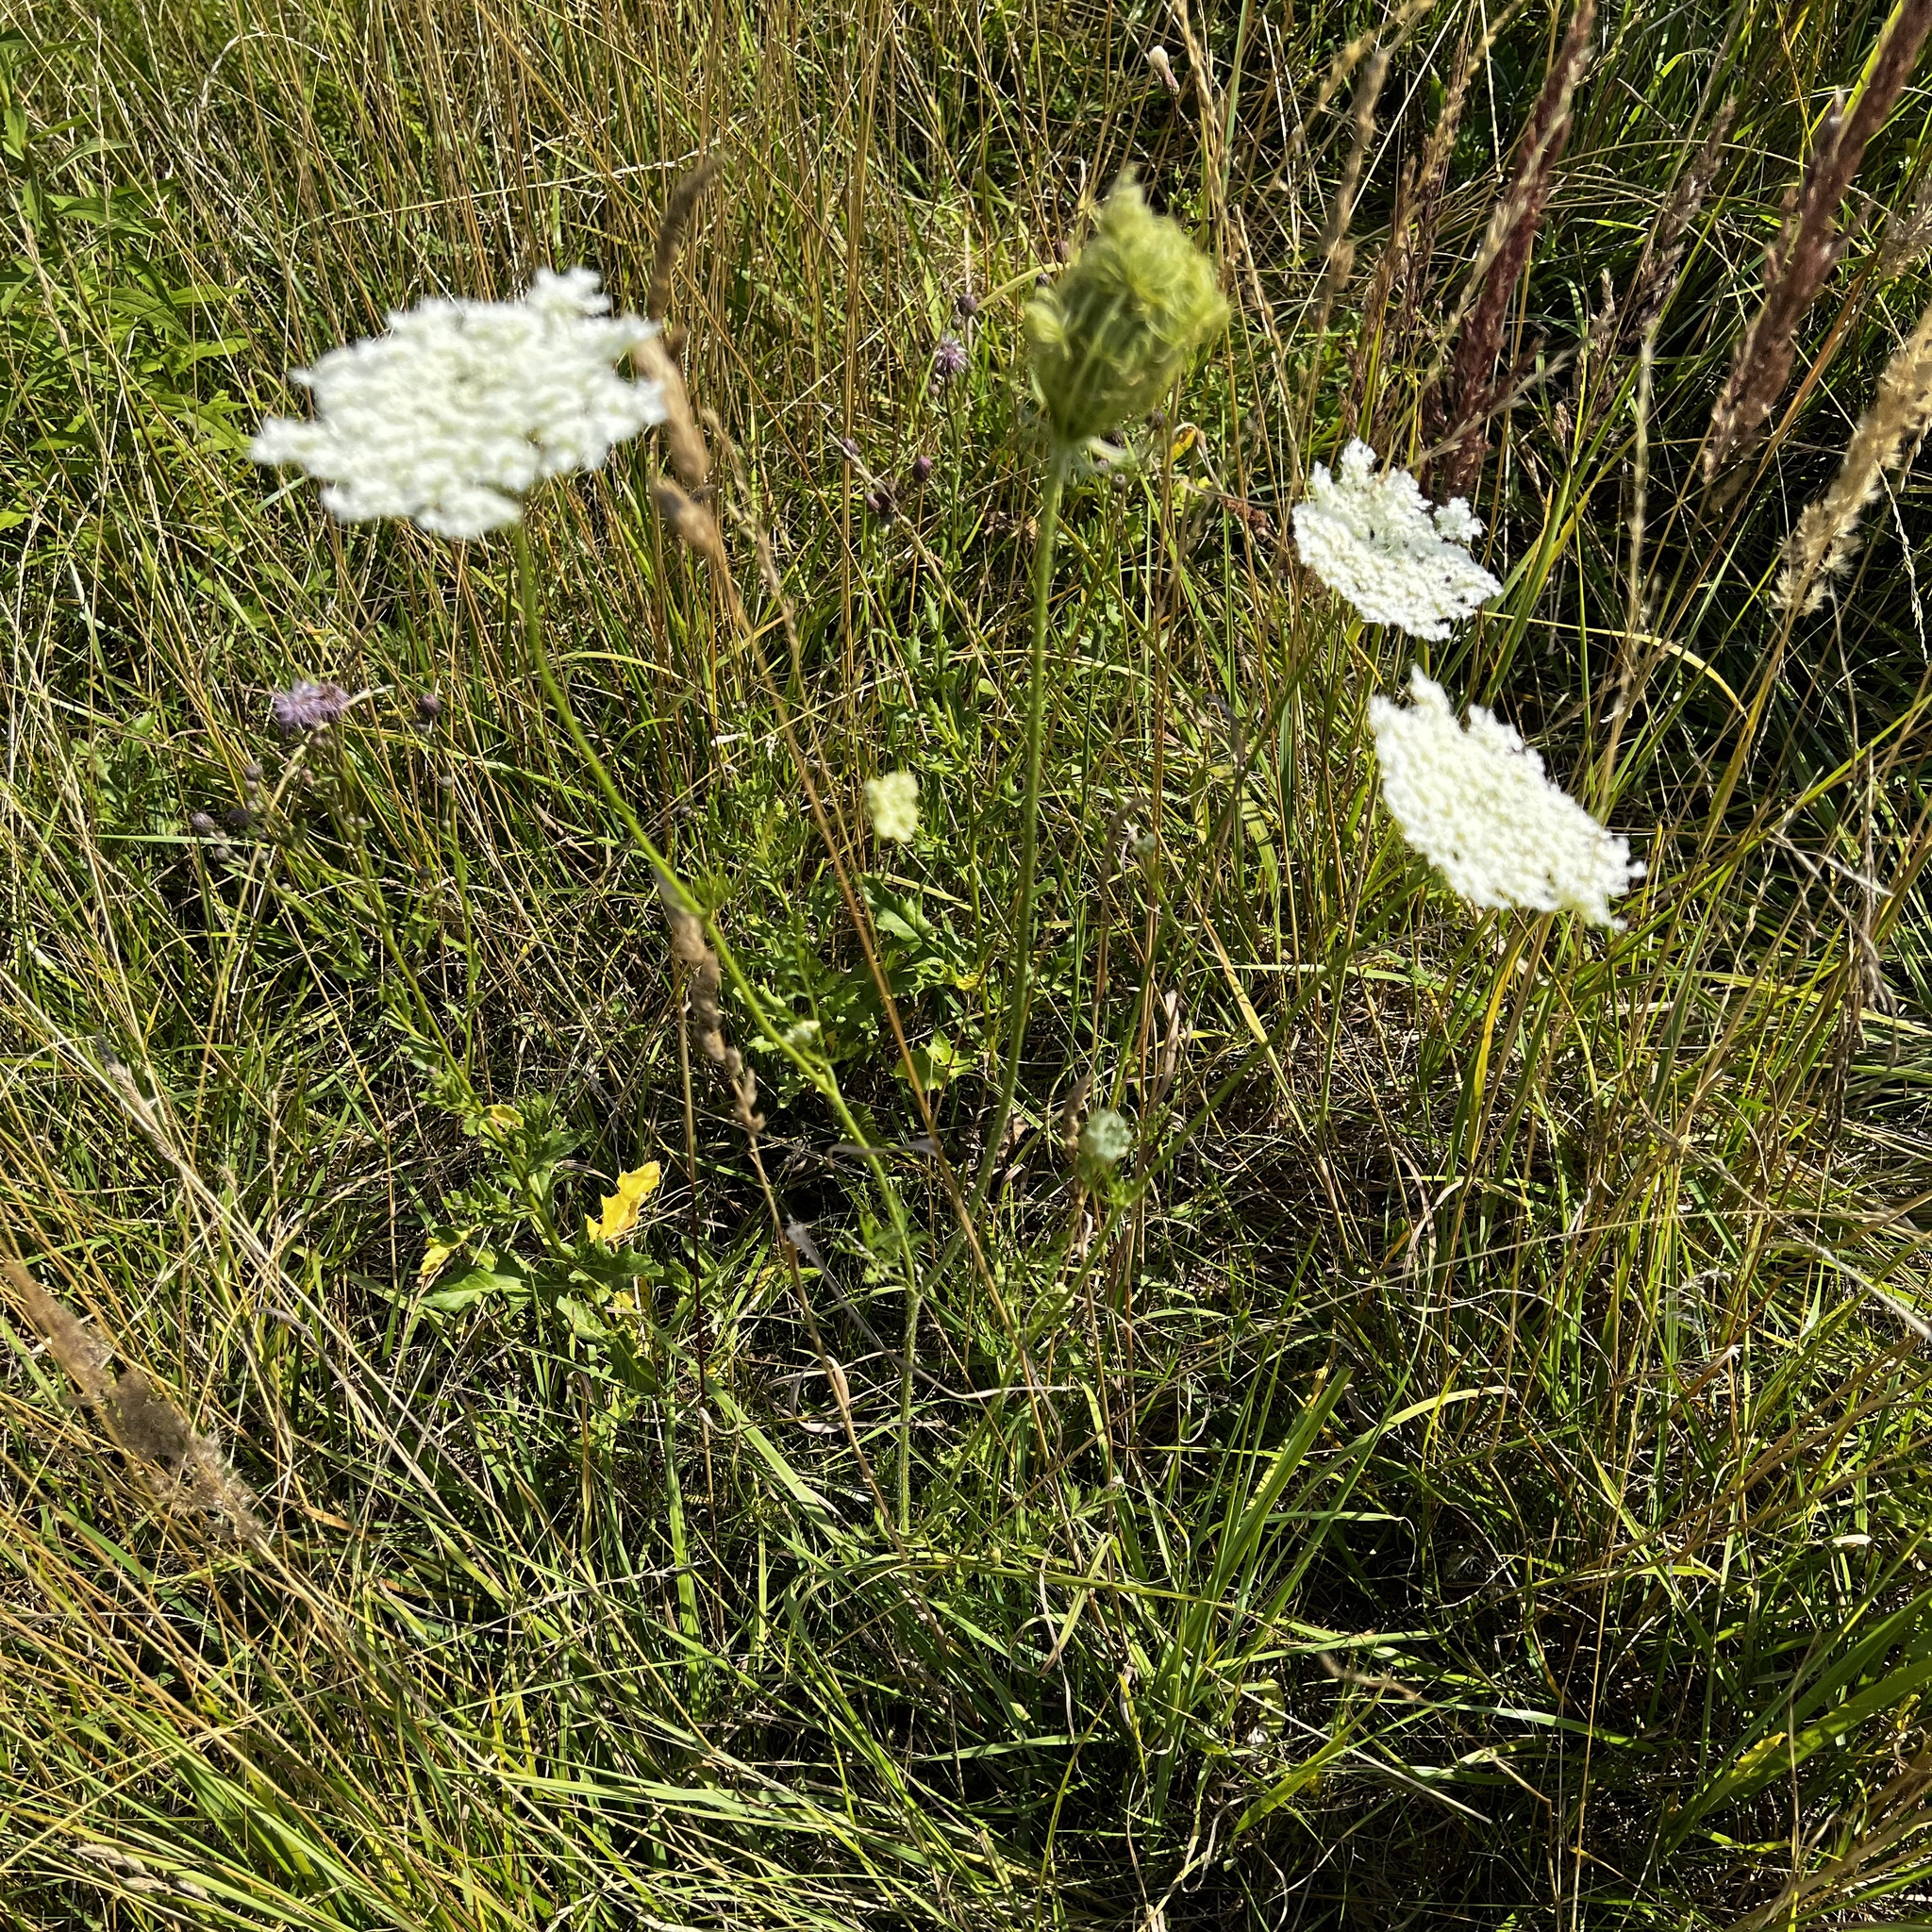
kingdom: Plantae
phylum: Tracheophyta
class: Magnoliopsida
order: Apiales
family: Apiaceae
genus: Daucus
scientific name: Daucus carota
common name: Wild carrot
